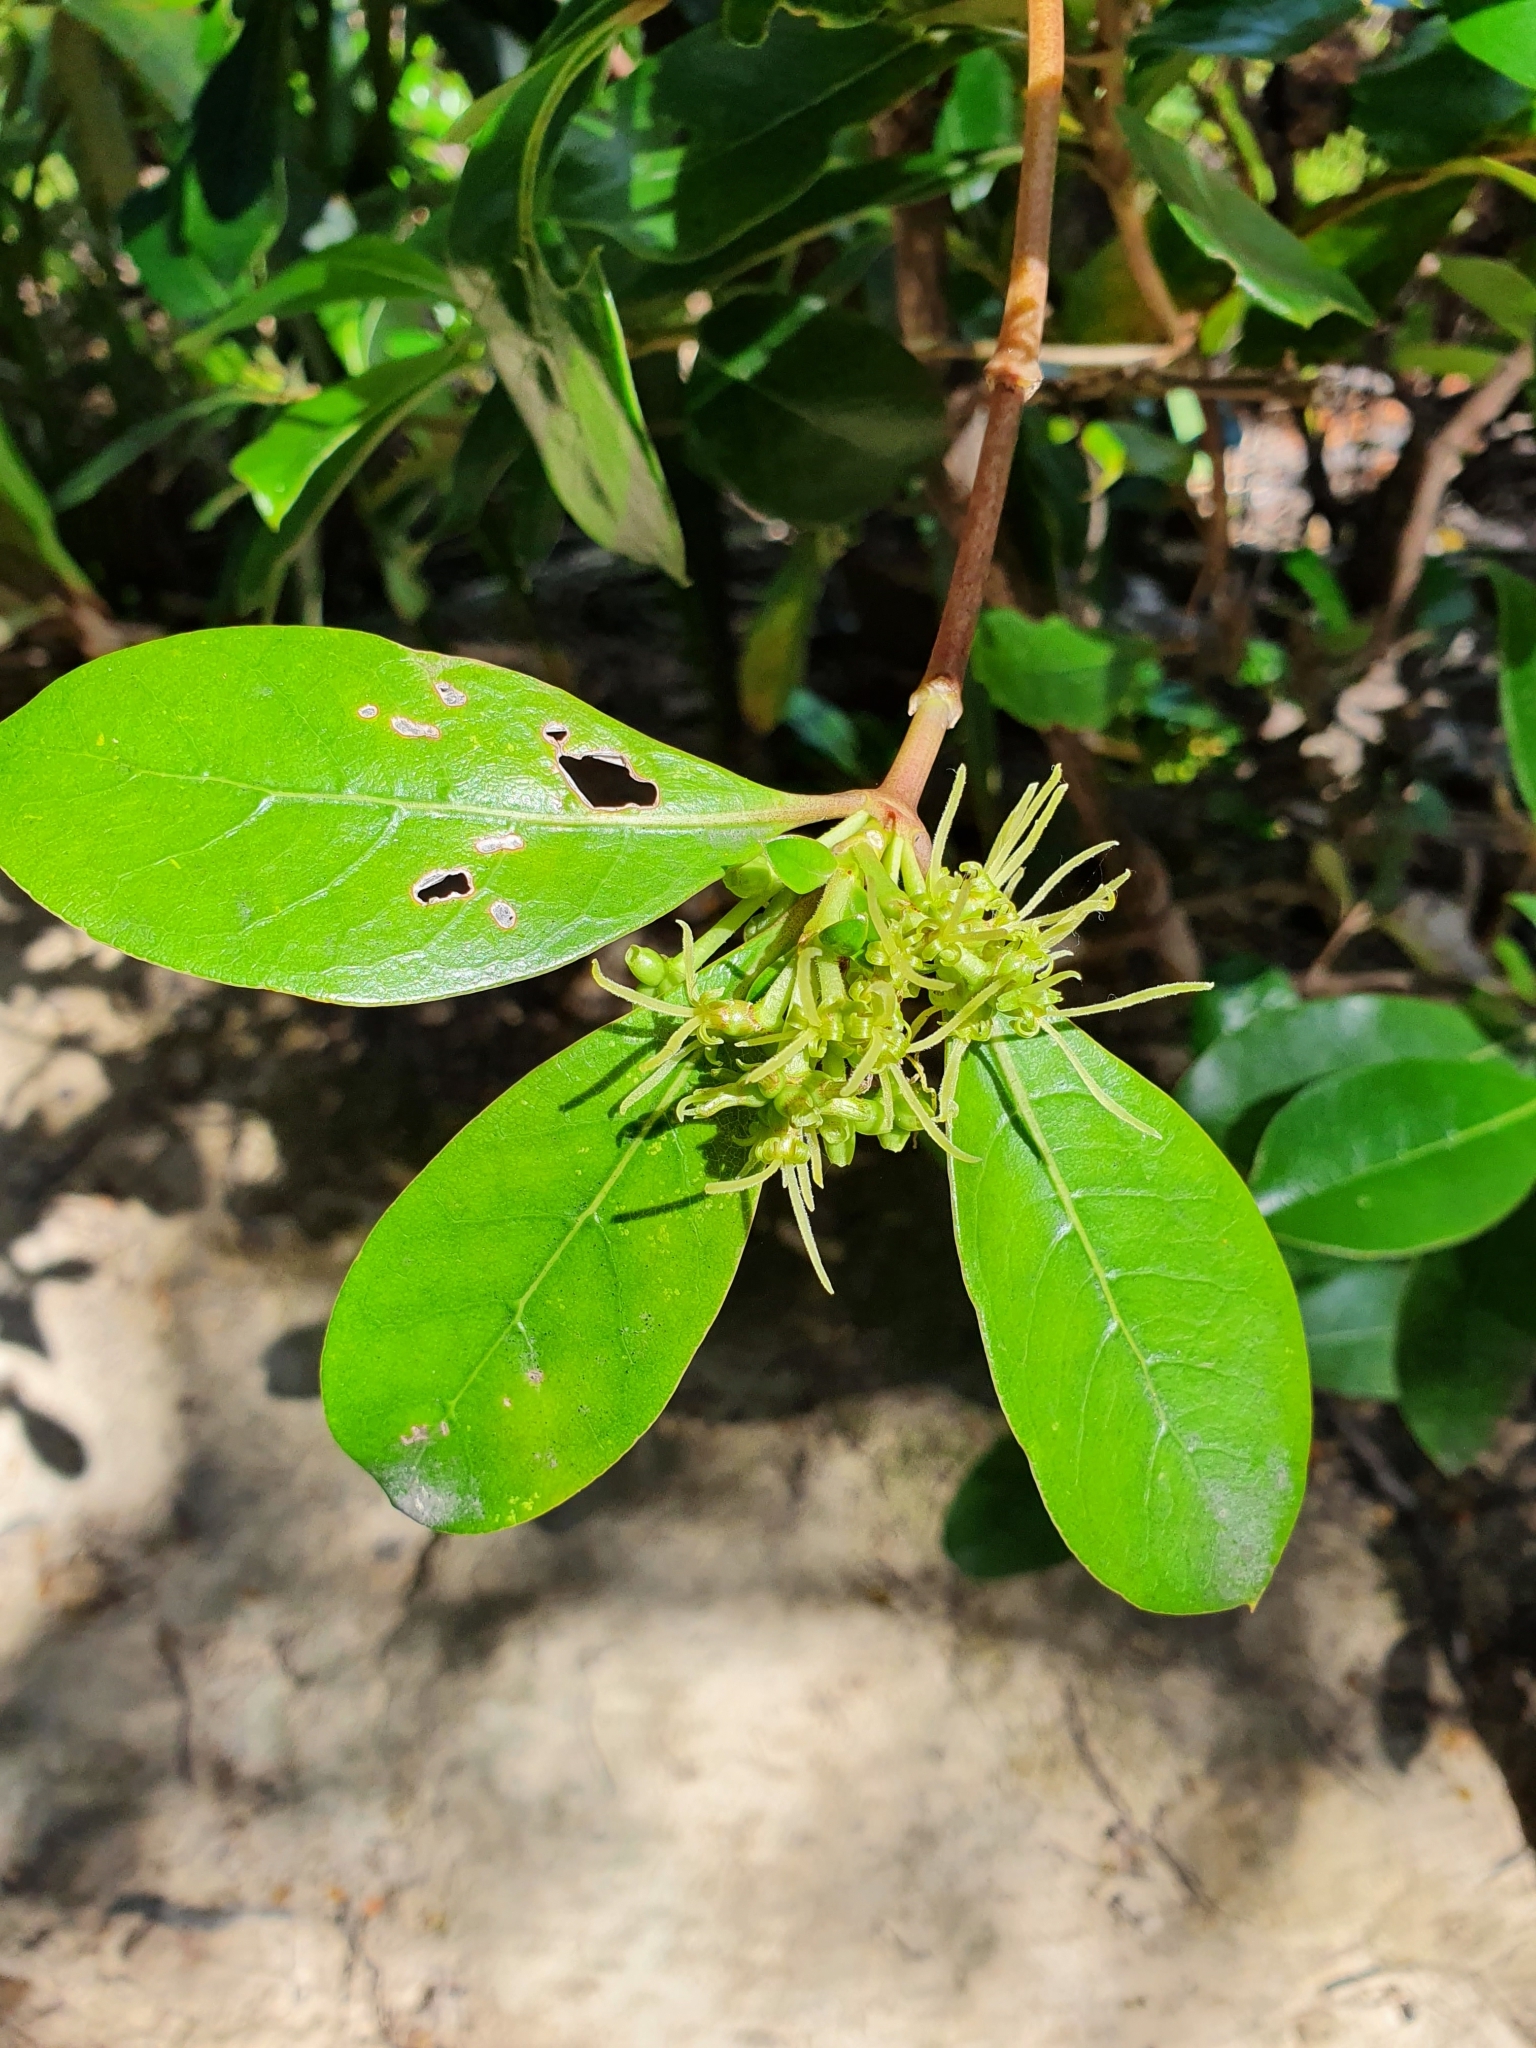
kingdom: Plantae
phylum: Tracheophyta
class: Magnoliopsida
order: Gentianales
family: Rubiaceae
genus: Coprosma
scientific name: Coprosma lucida
